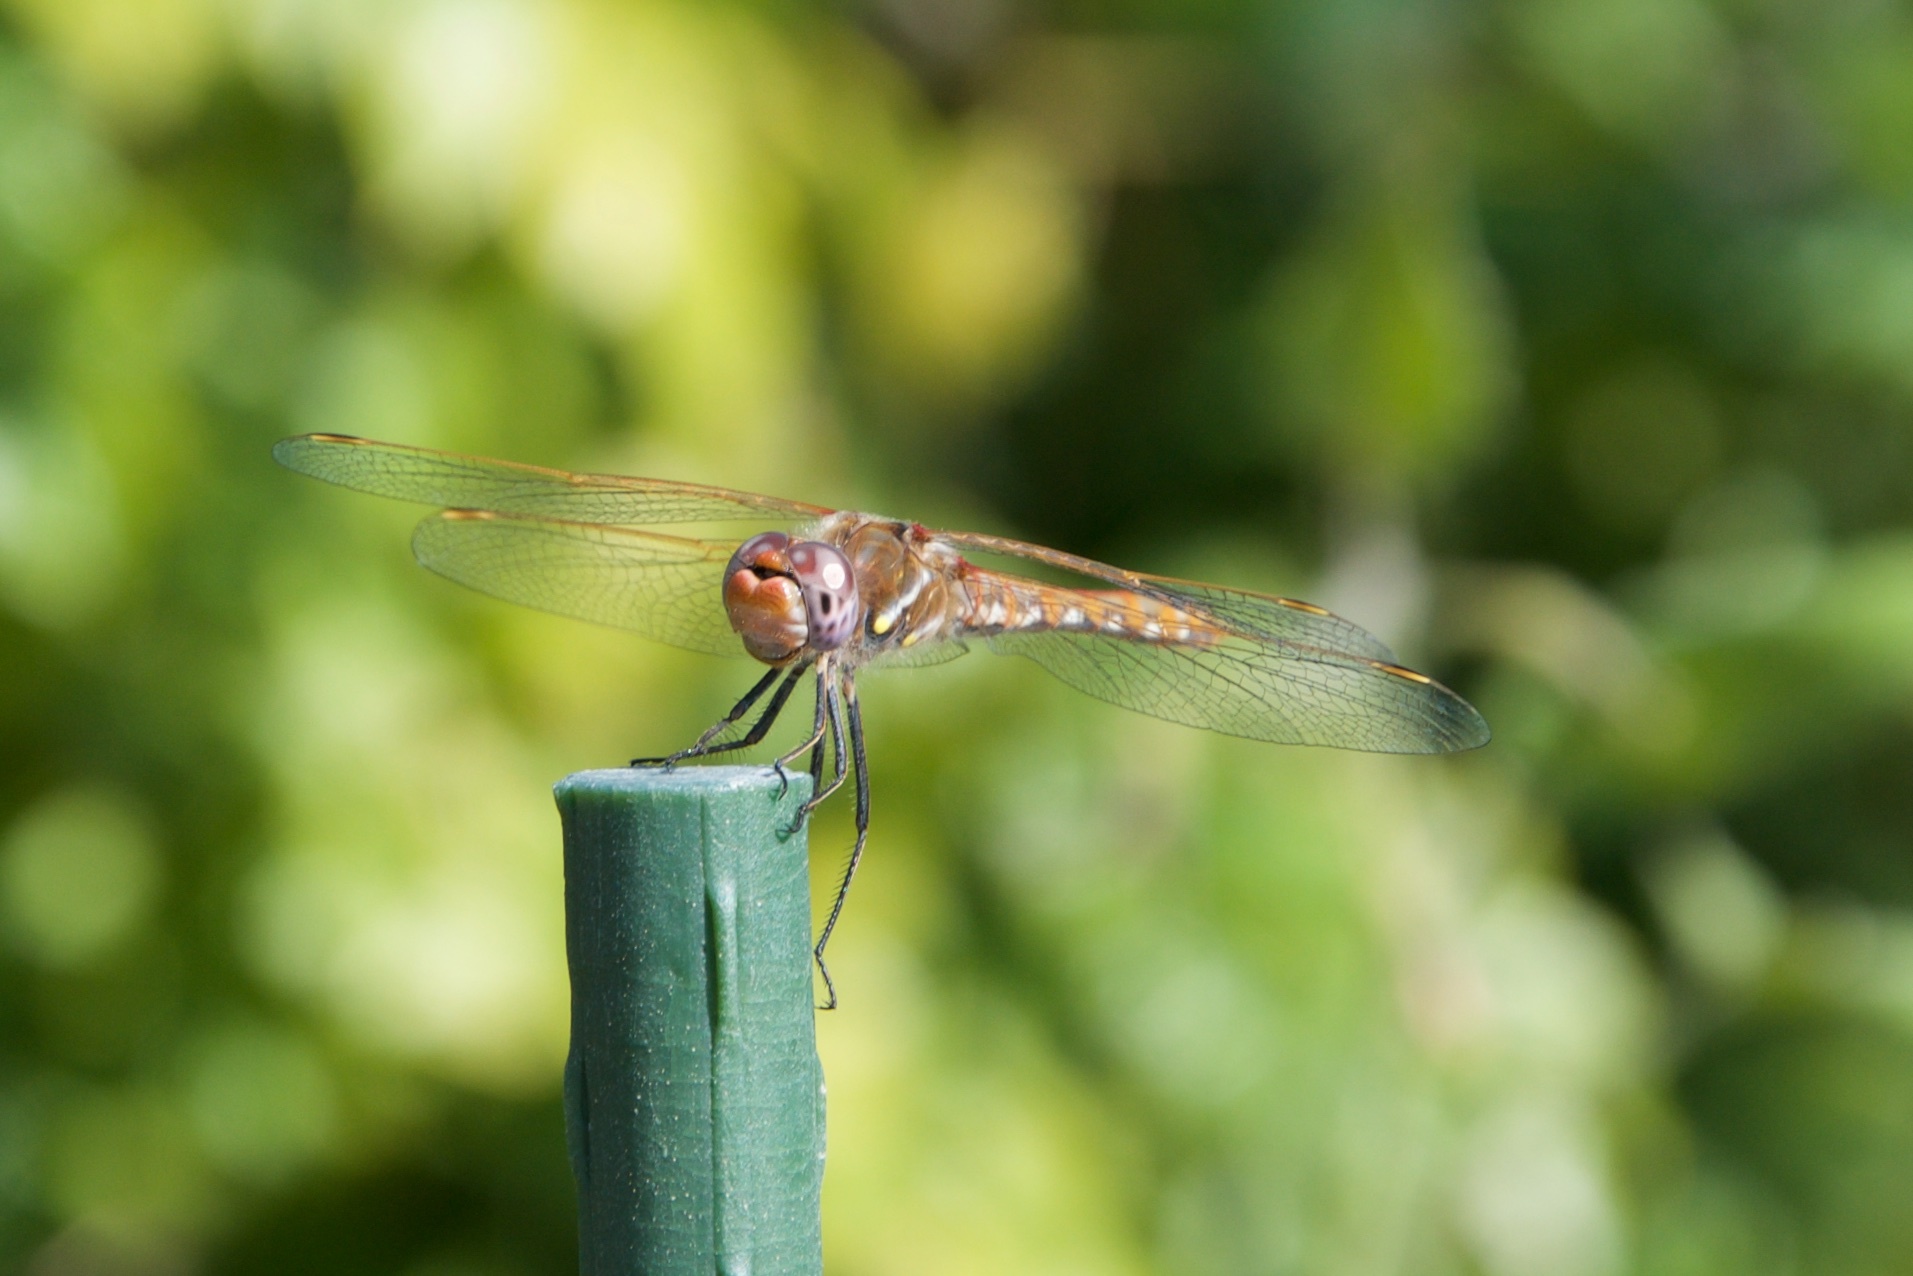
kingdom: Animalia
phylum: Arthropoda
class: Insecta
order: Odonata
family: Libellulidae
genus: Sympetrum
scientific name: Sympetrum corruptum
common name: Variegated meadowhawk
